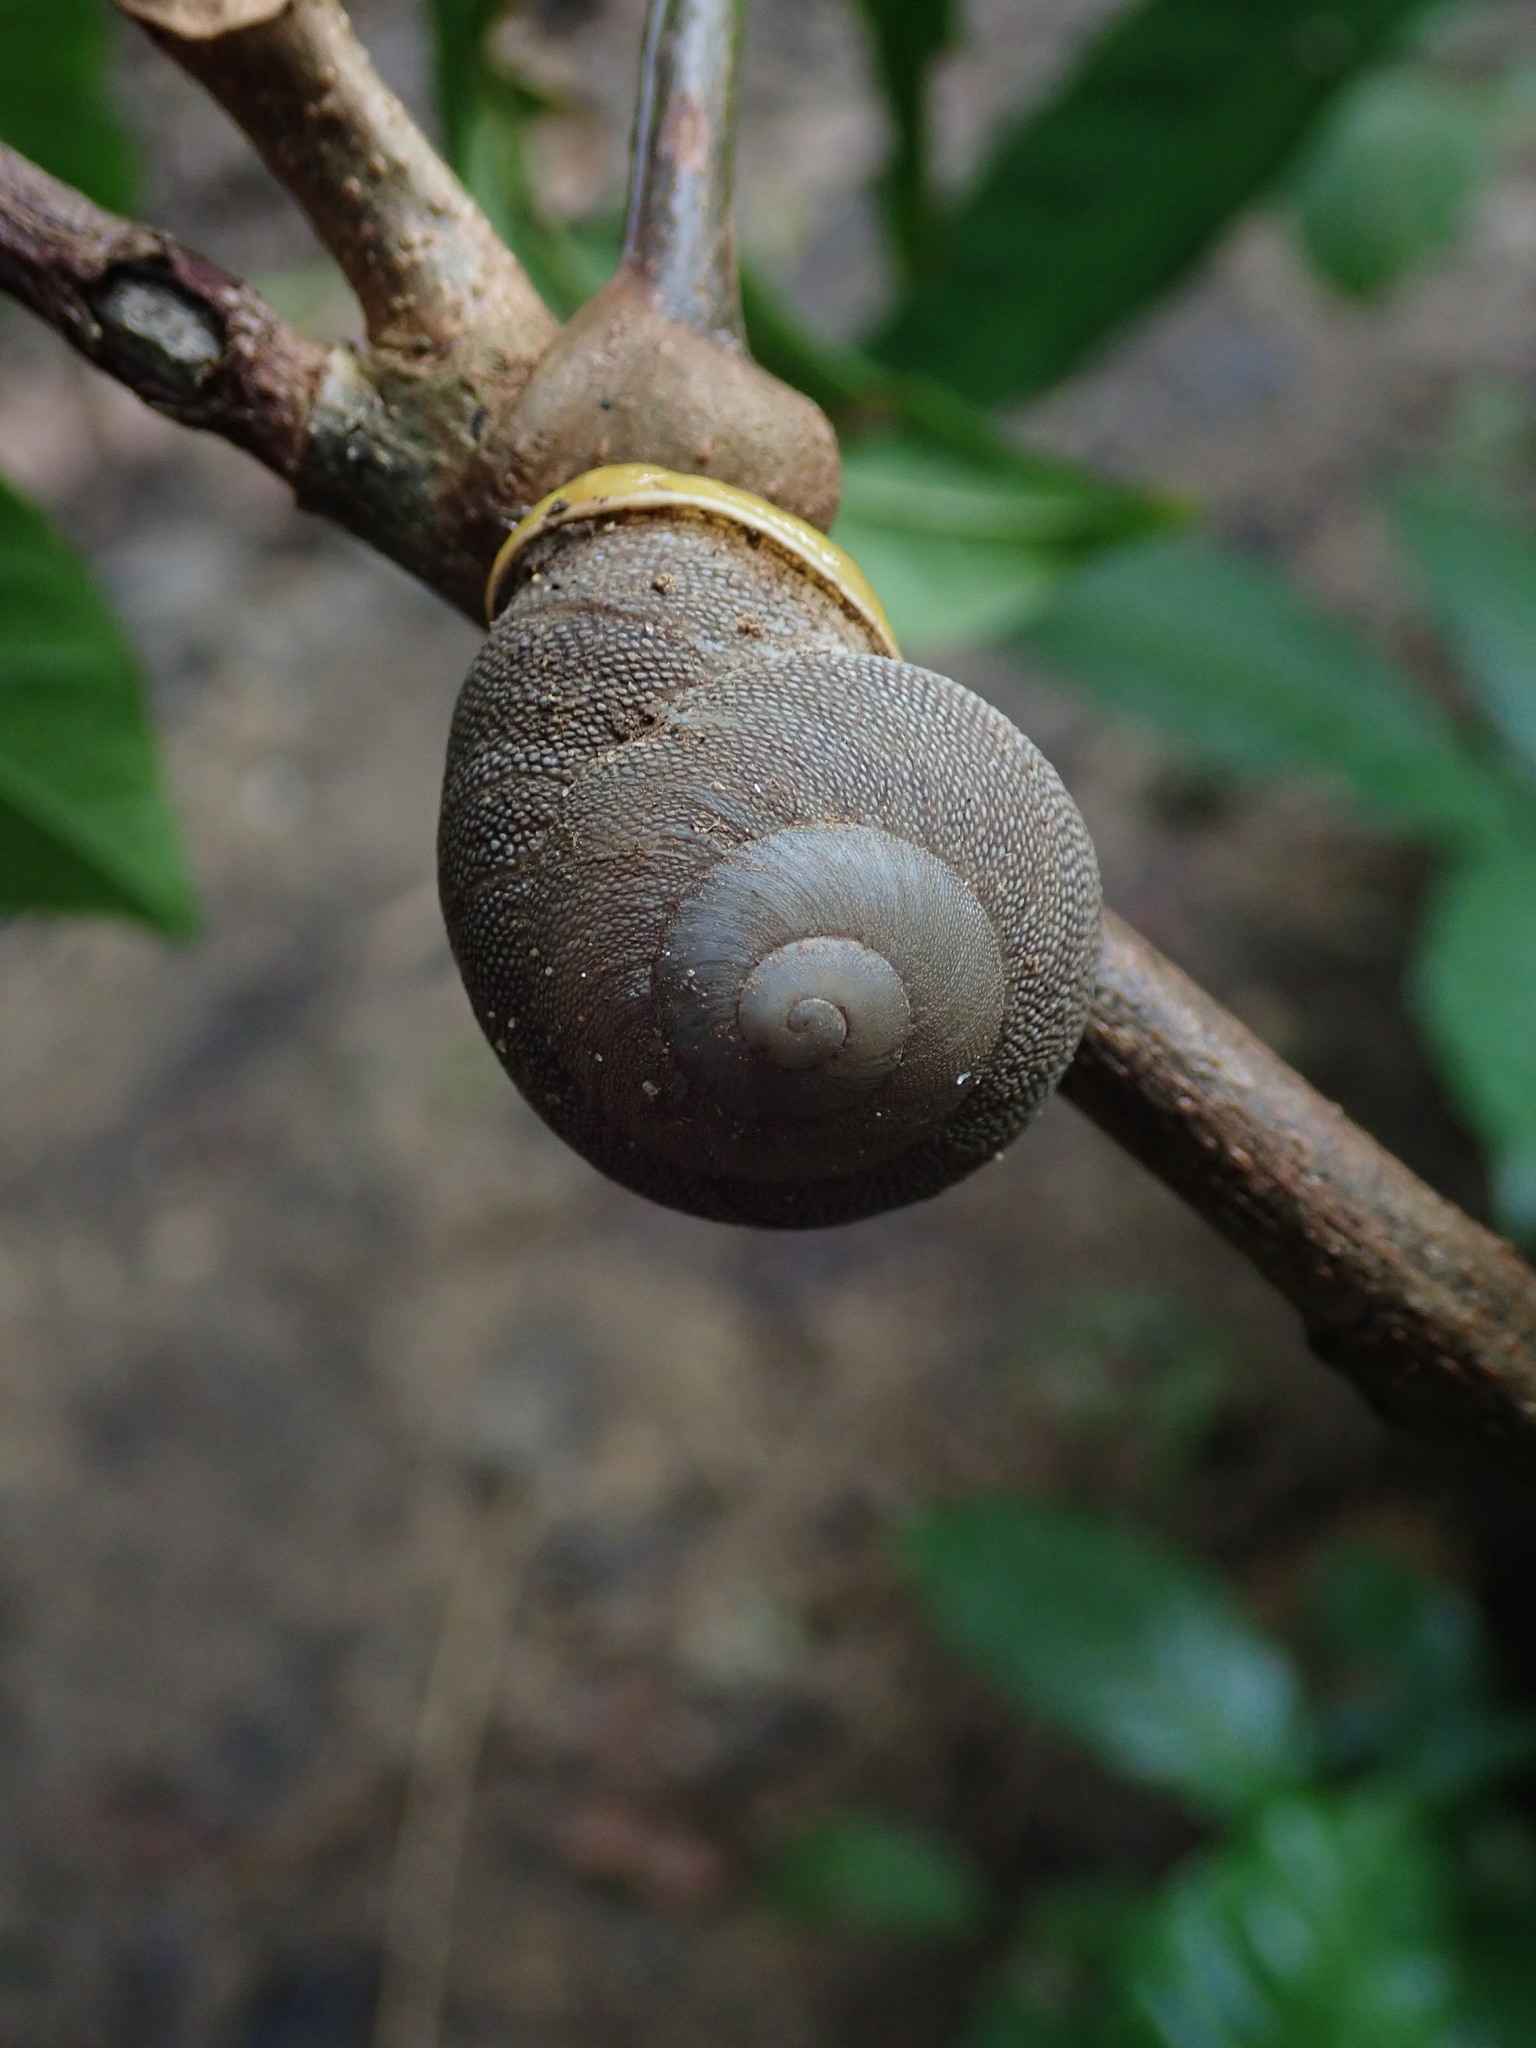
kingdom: Animalia
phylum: Mollusca
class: Gastropoda
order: Stylommatophora
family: Sagdidae
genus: Granodomus
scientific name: Granodomus lima
